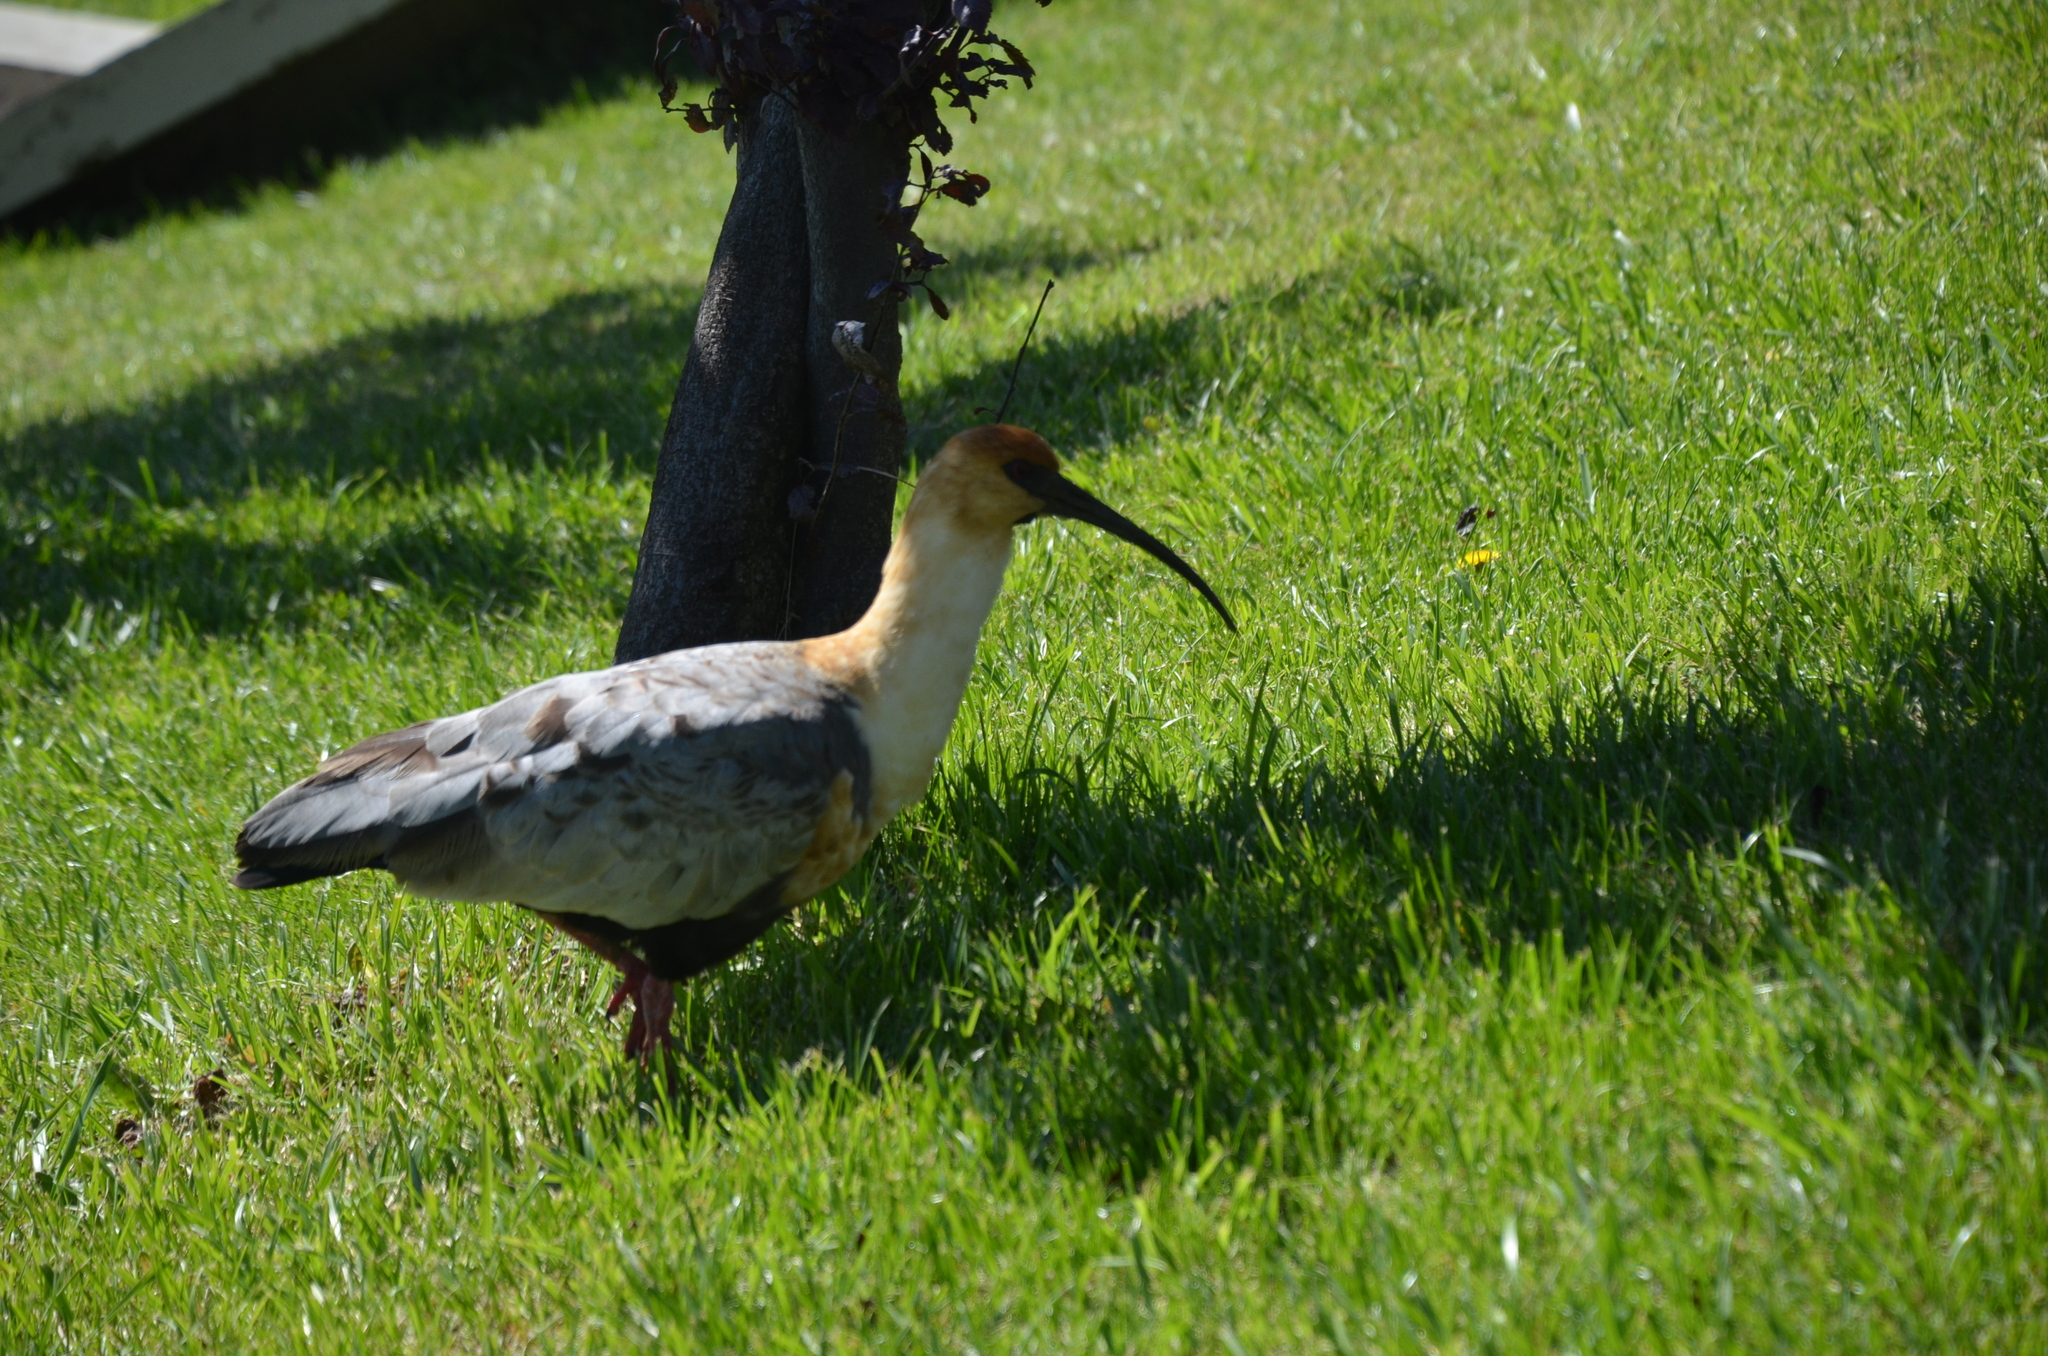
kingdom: Animalia
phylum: Chordata
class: Aves
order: Pelecaniformes
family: Threskiornithidae
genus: Theristicus
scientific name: Theristicus melanopis
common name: Black-faced ibis
